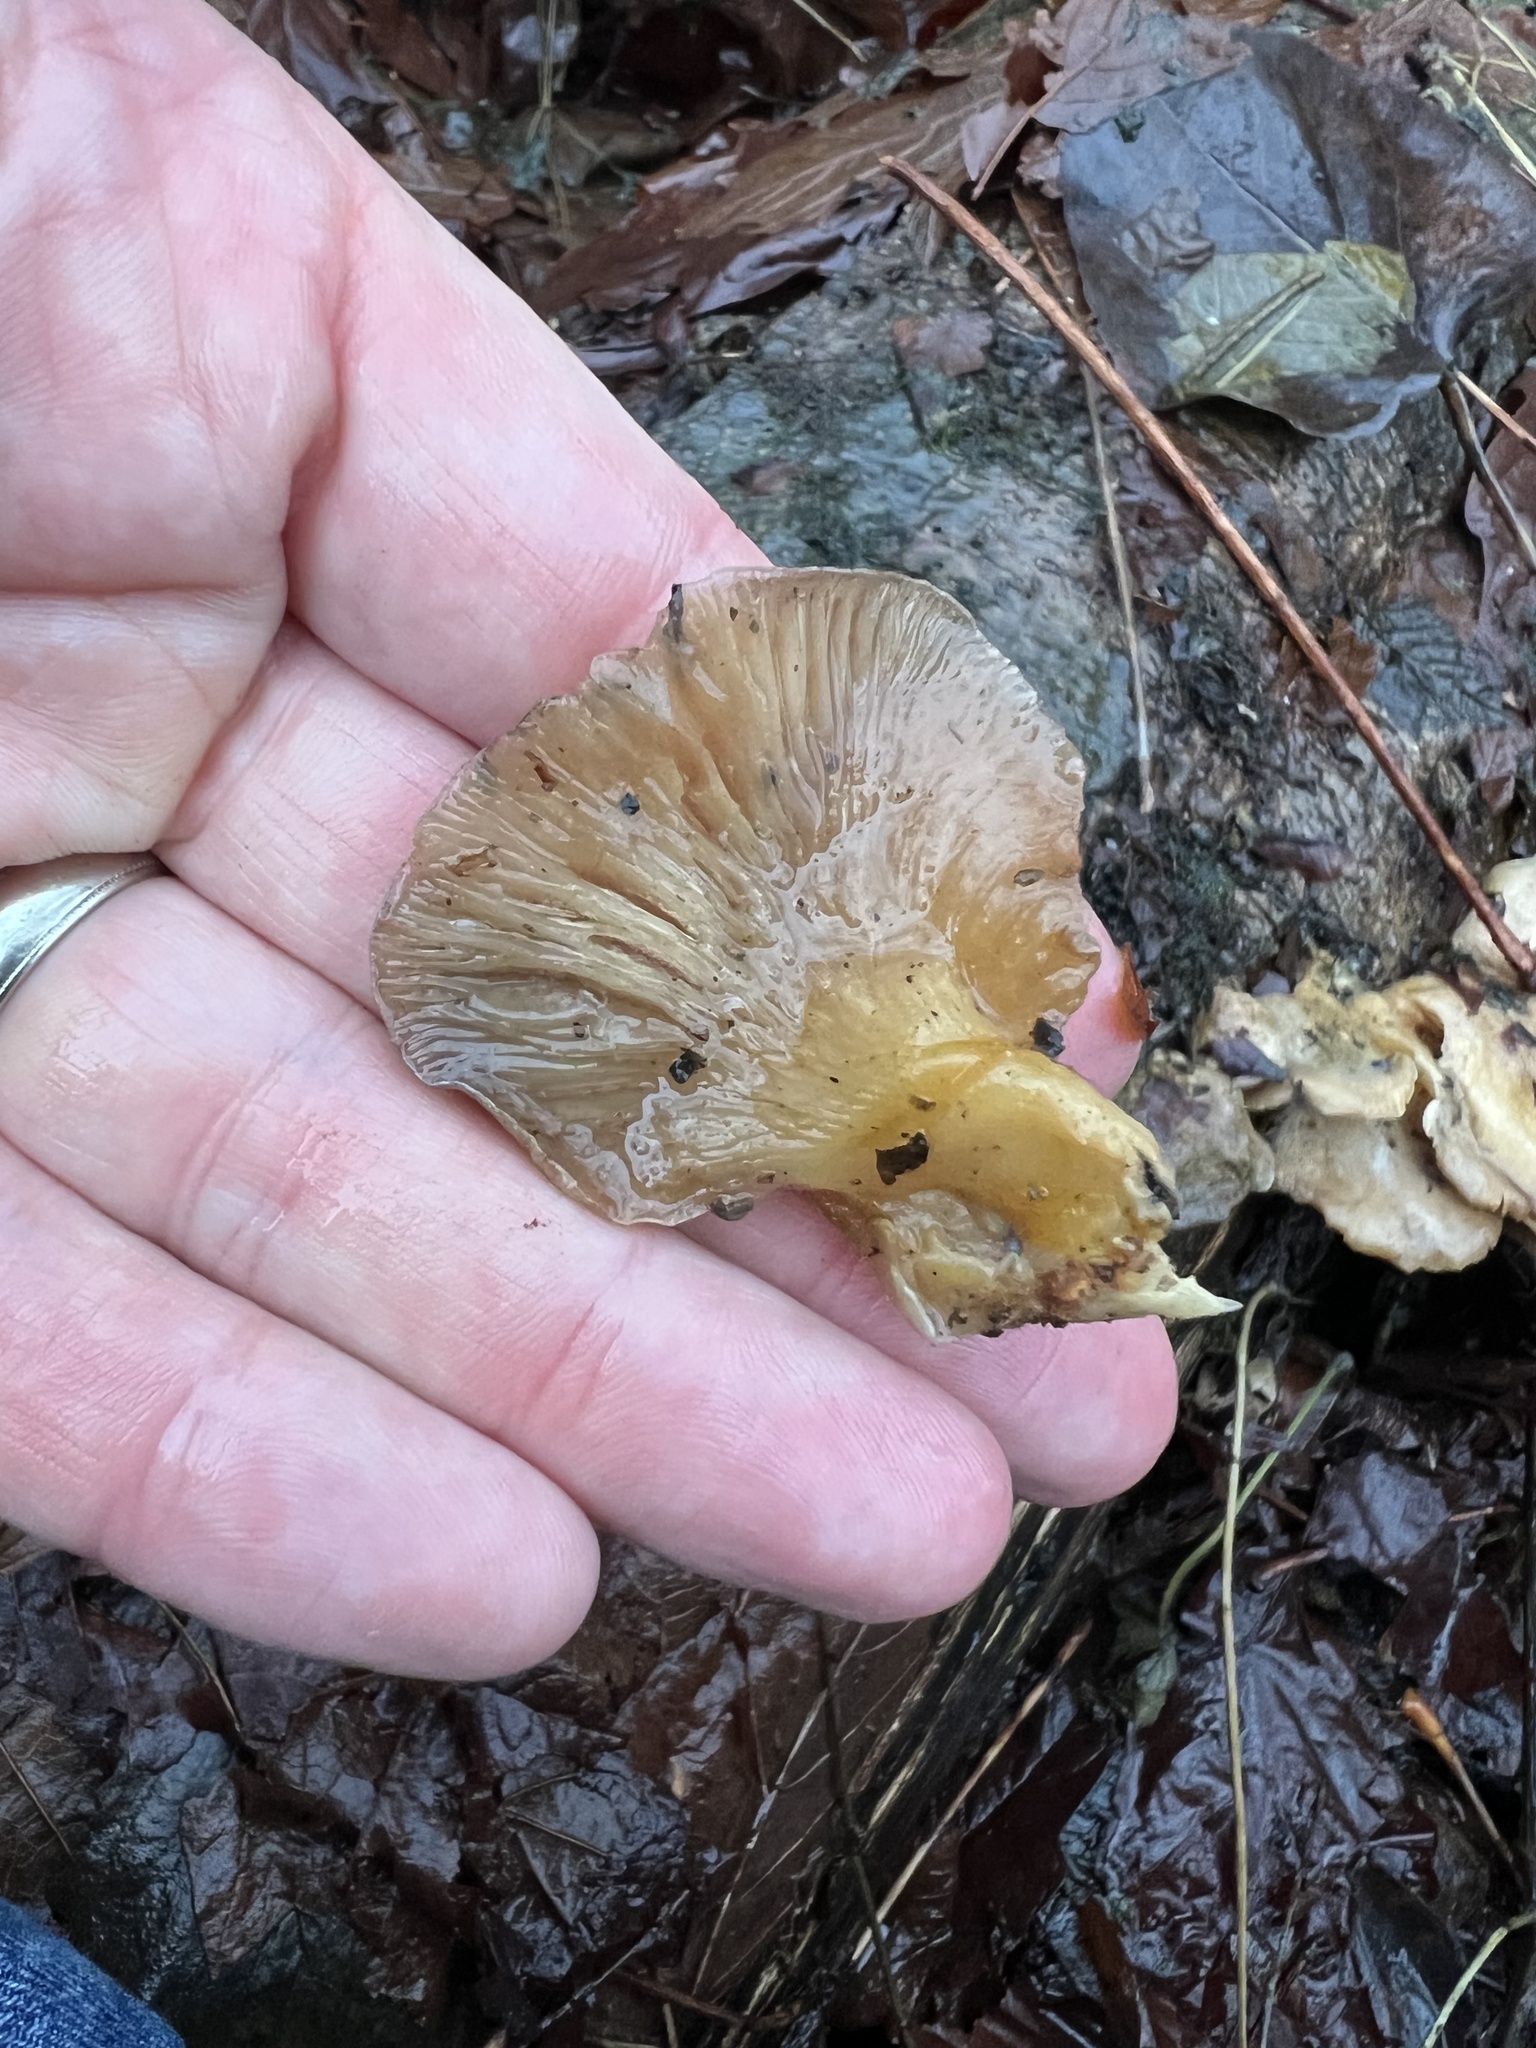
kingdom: Fungi
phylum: Basidiomycota
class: Agaricomycetes
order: Agaricales
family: Sarcomyxaceae
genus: Sarcomyxa
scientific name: Sarcomyxa serotina
